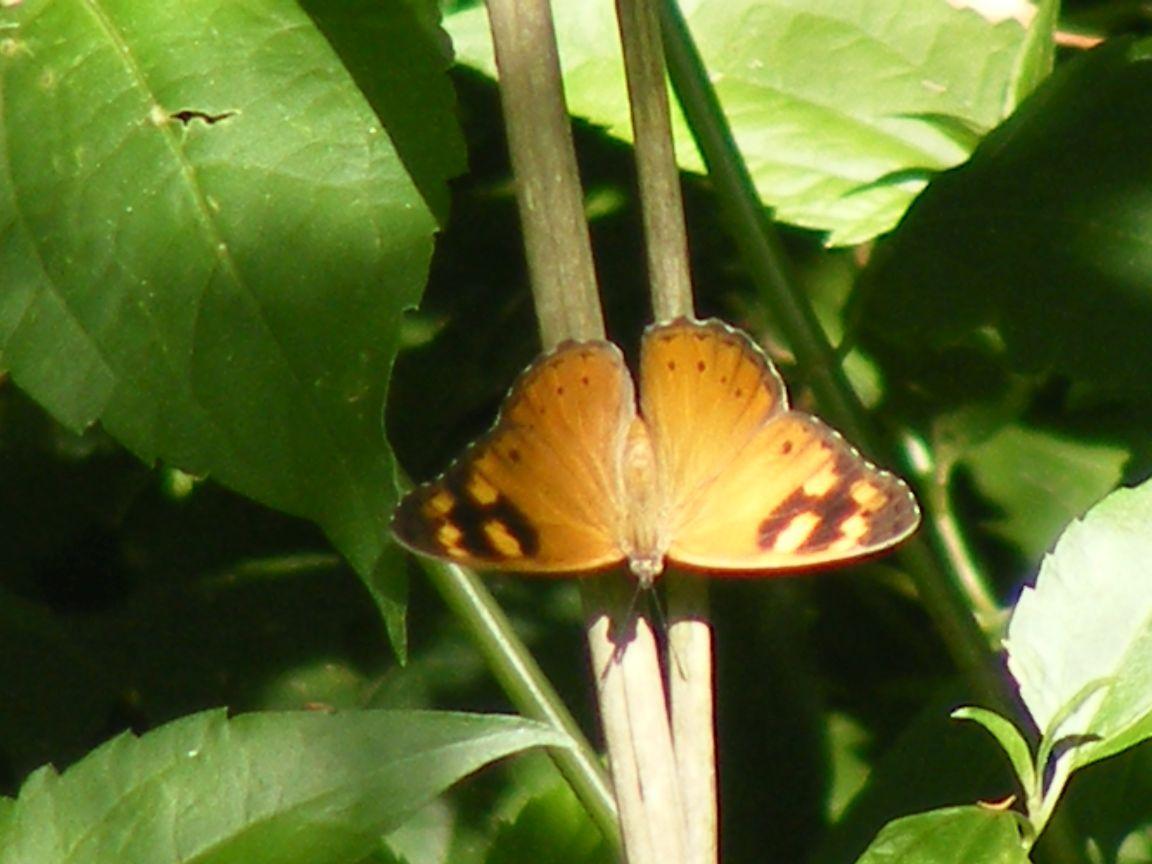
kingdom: Animalia
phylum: Arthropoda
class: Insecta
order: Lepidoptera
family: Nymphalidae
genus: Sallya
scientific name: Sallya natalensis
